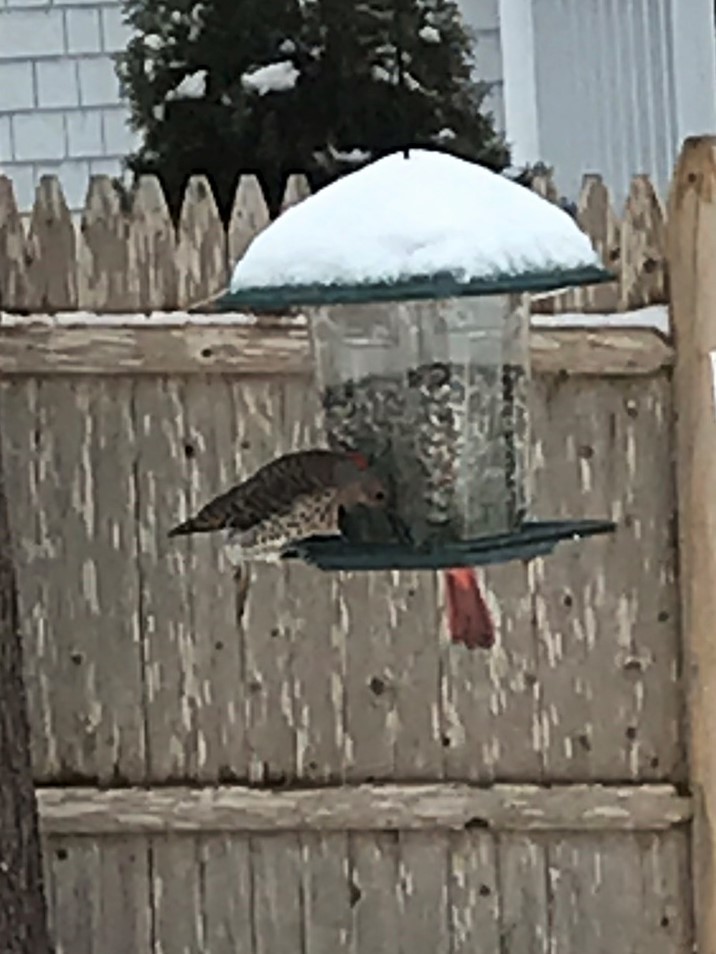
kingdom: Animalia
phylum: Chordata
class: Aves
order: Piciformes
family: Picidae
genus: Colaptes
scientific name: Colaptes auratus
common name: Northern flicker
